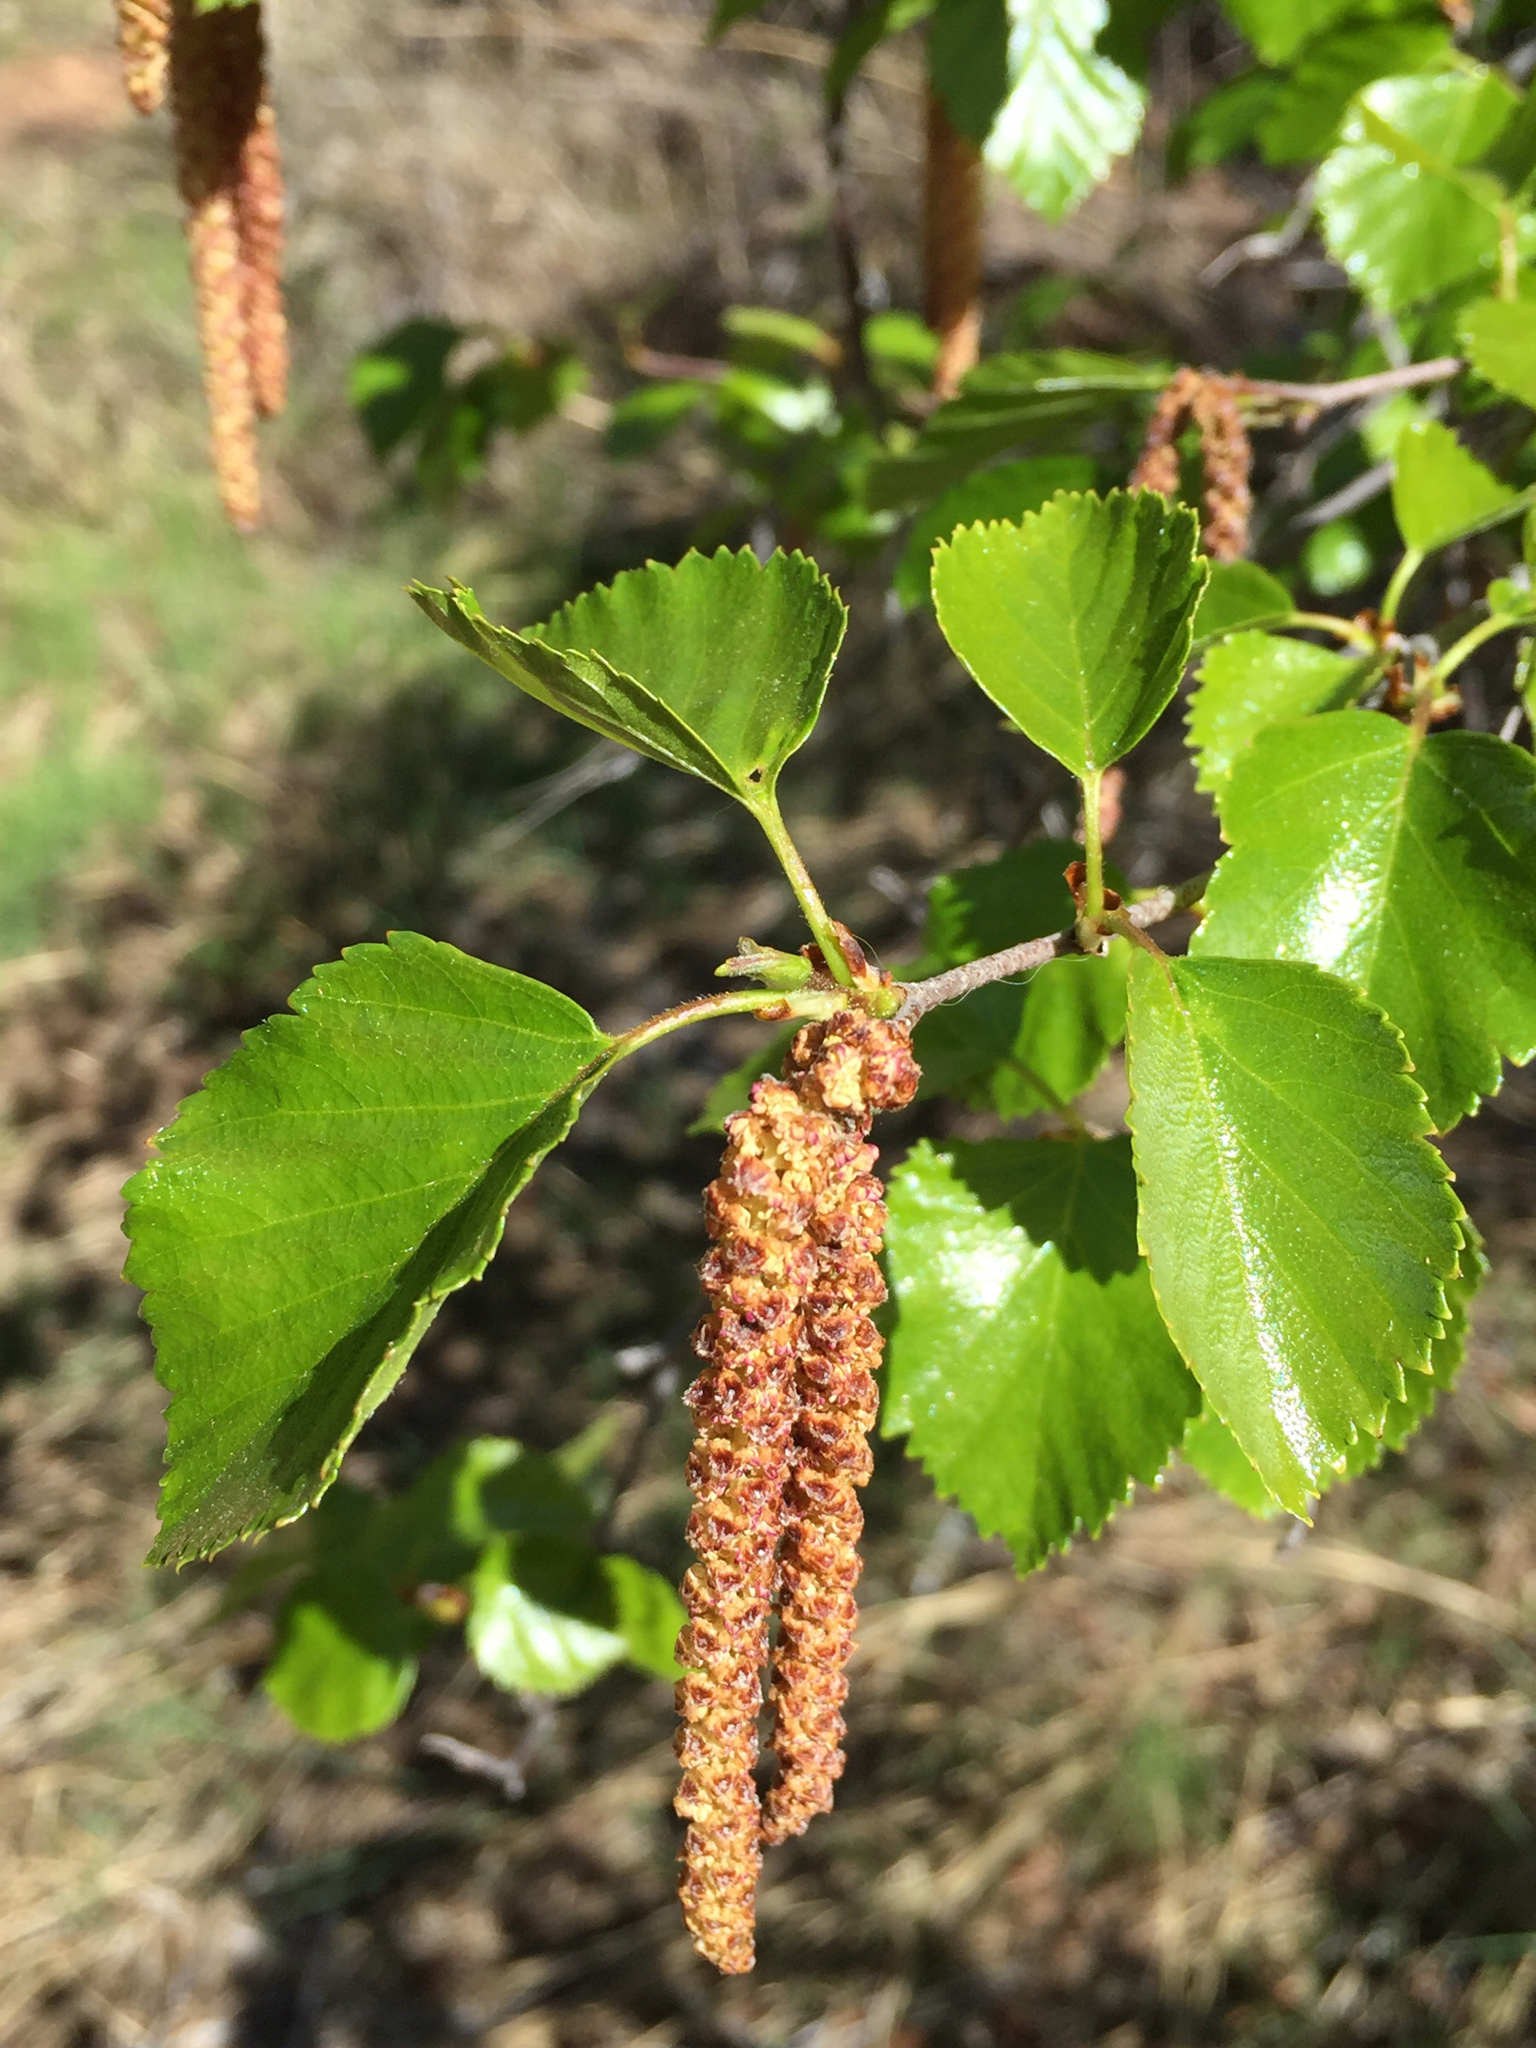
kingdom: Plantae
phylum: Tracheophyta
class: Magnoliopsida
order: Fagales
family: Betulaceae
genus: Betula
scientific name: Betula occidentalis
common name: River birch
